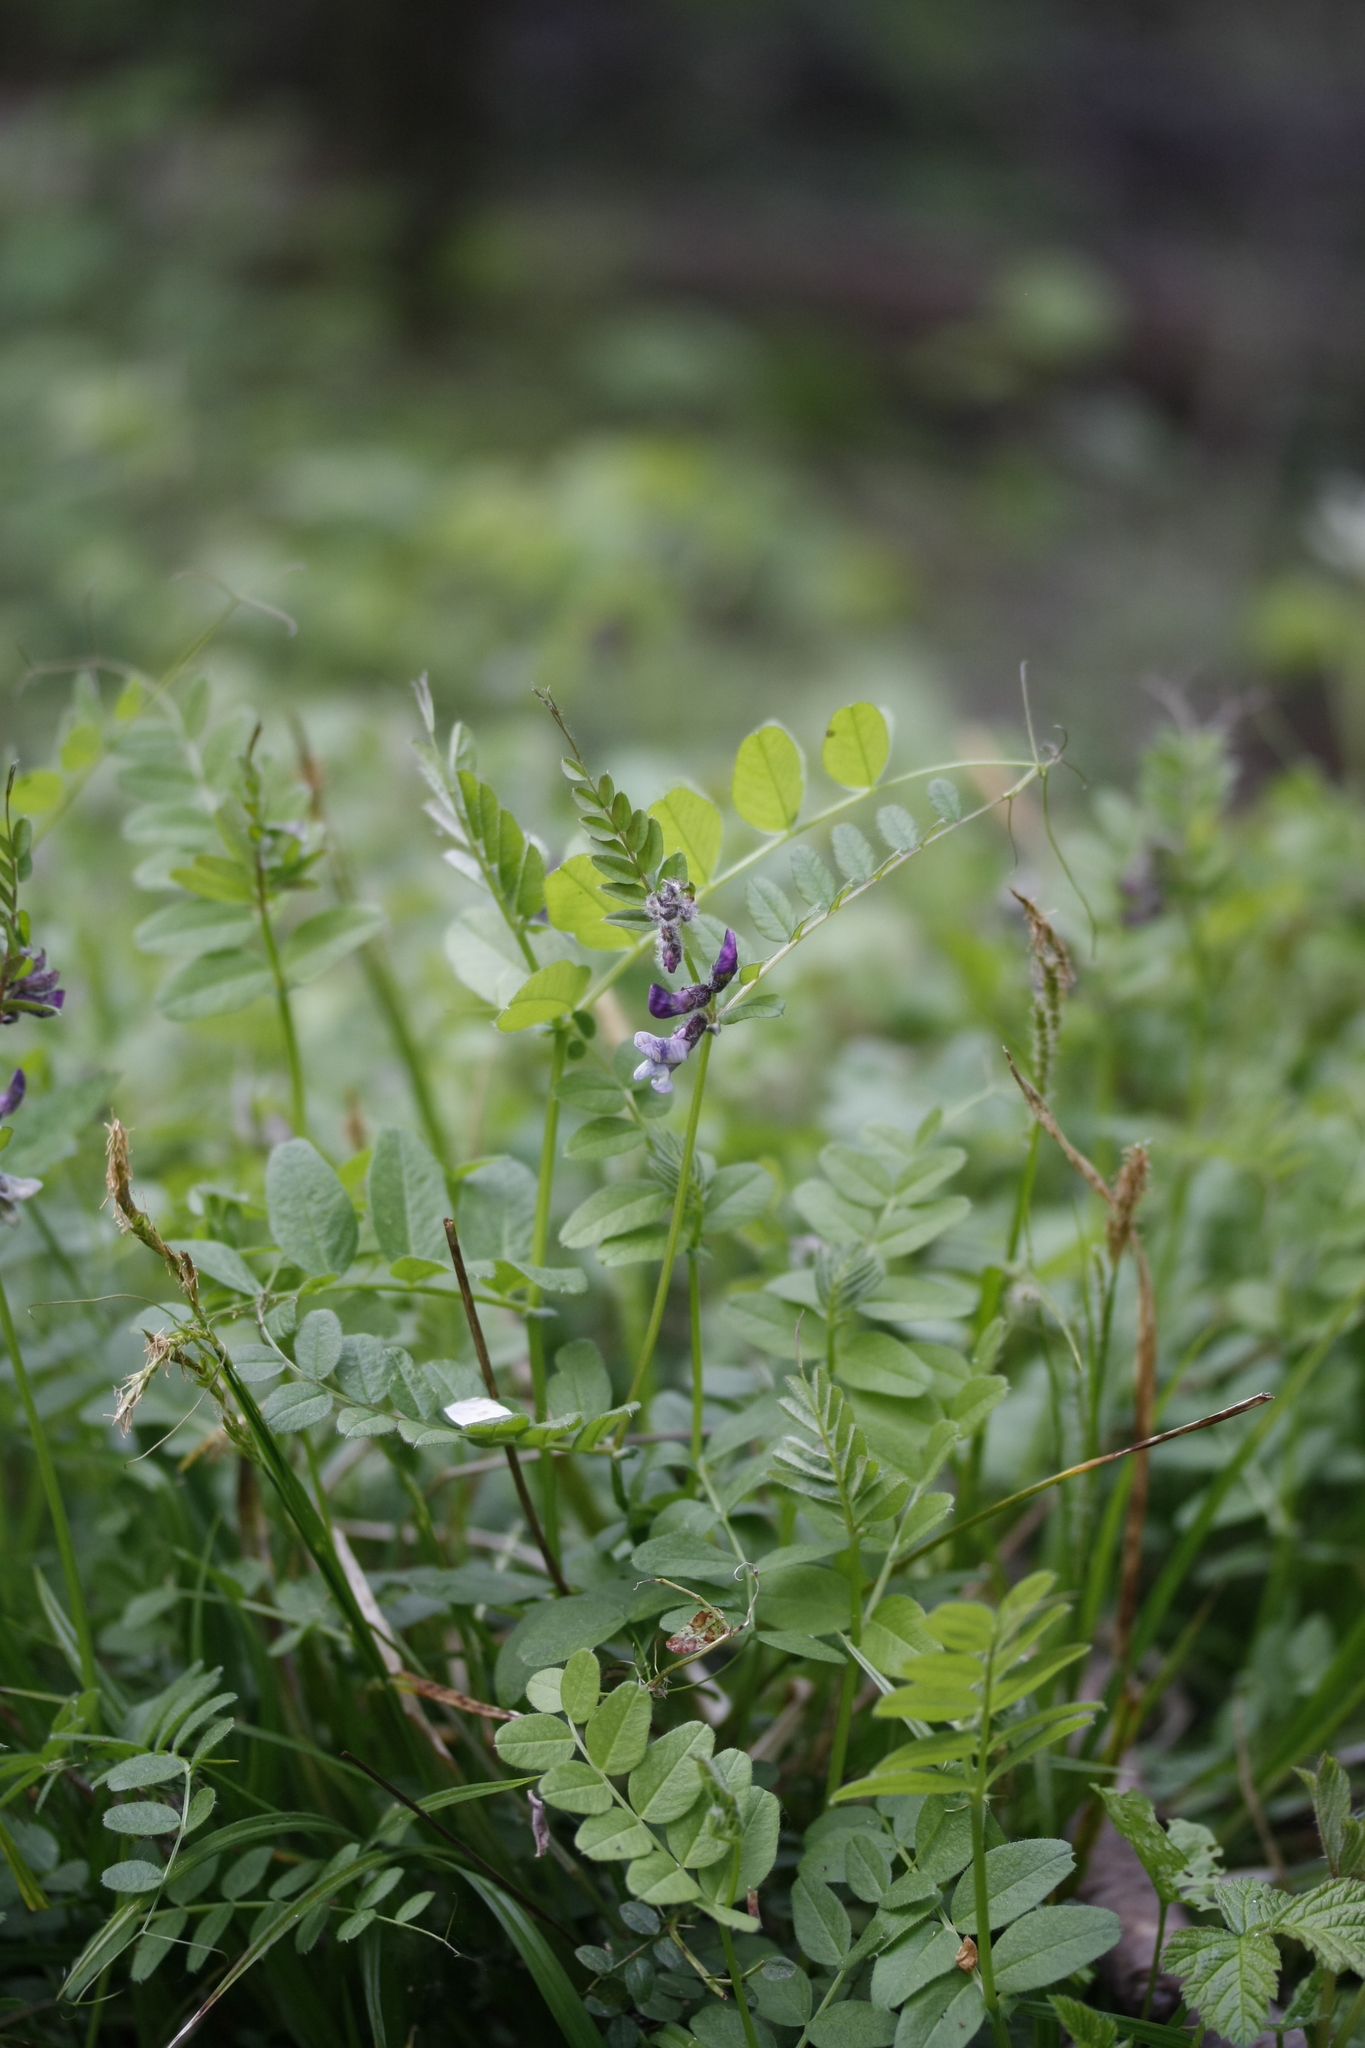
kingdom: Plantae
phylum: Tracheophyta
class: Magnoliopsida
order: Fabales
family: Fabaceae
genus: Vicia
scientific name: Vicia sepium
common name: Bush vetch
